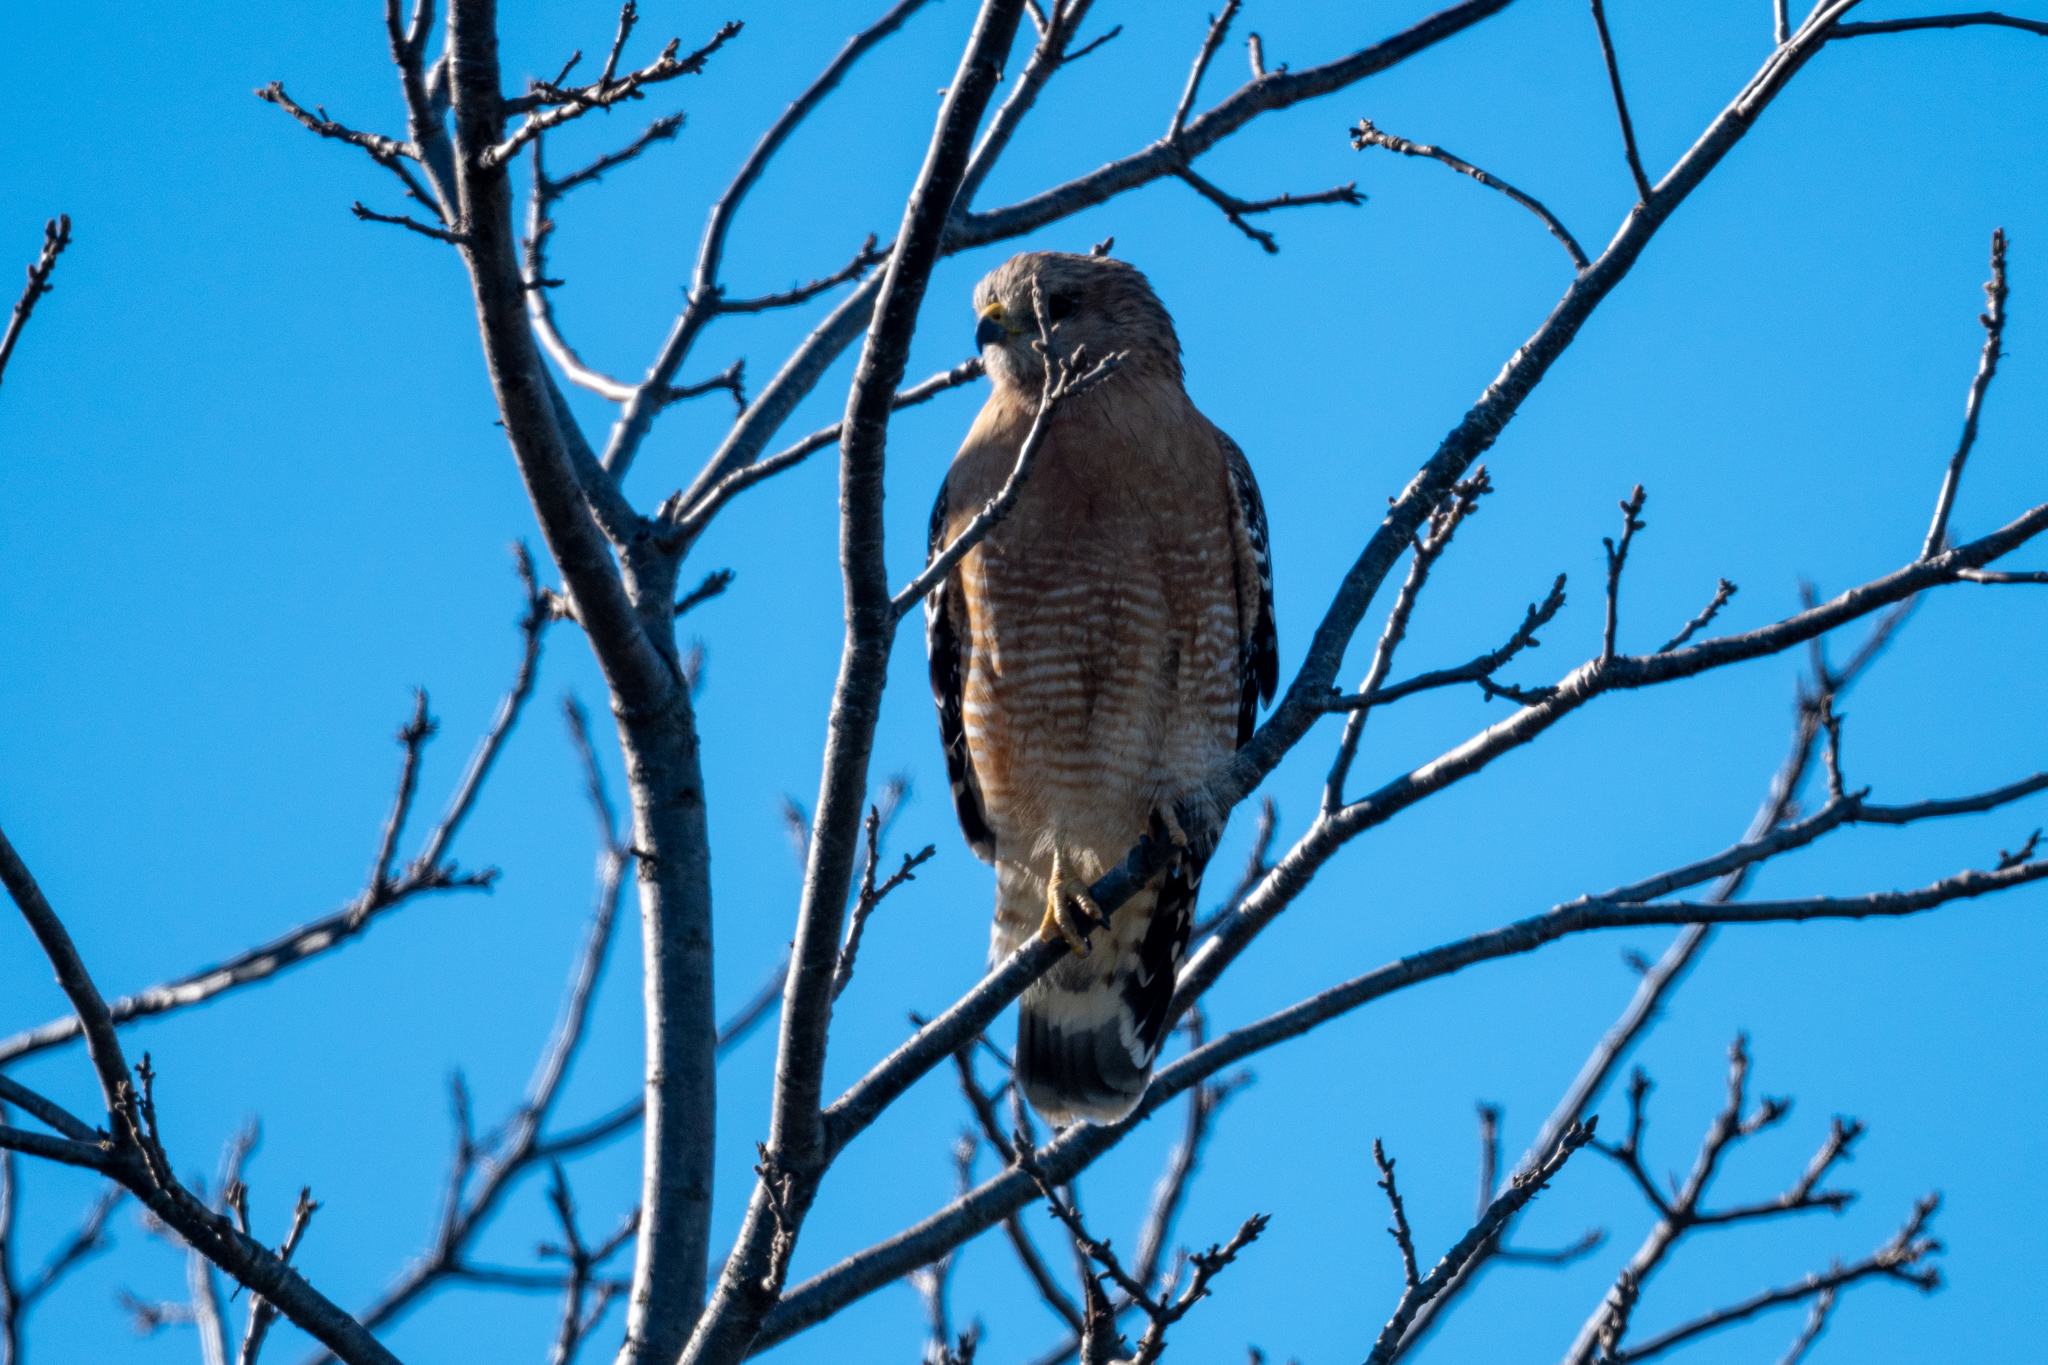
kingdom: Animalia
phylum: Chordata
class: Aves
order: Accipitriformes
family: Accipitridae
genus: Buteo
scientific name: Buteo lineatus
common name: Red-shouldered hawk
